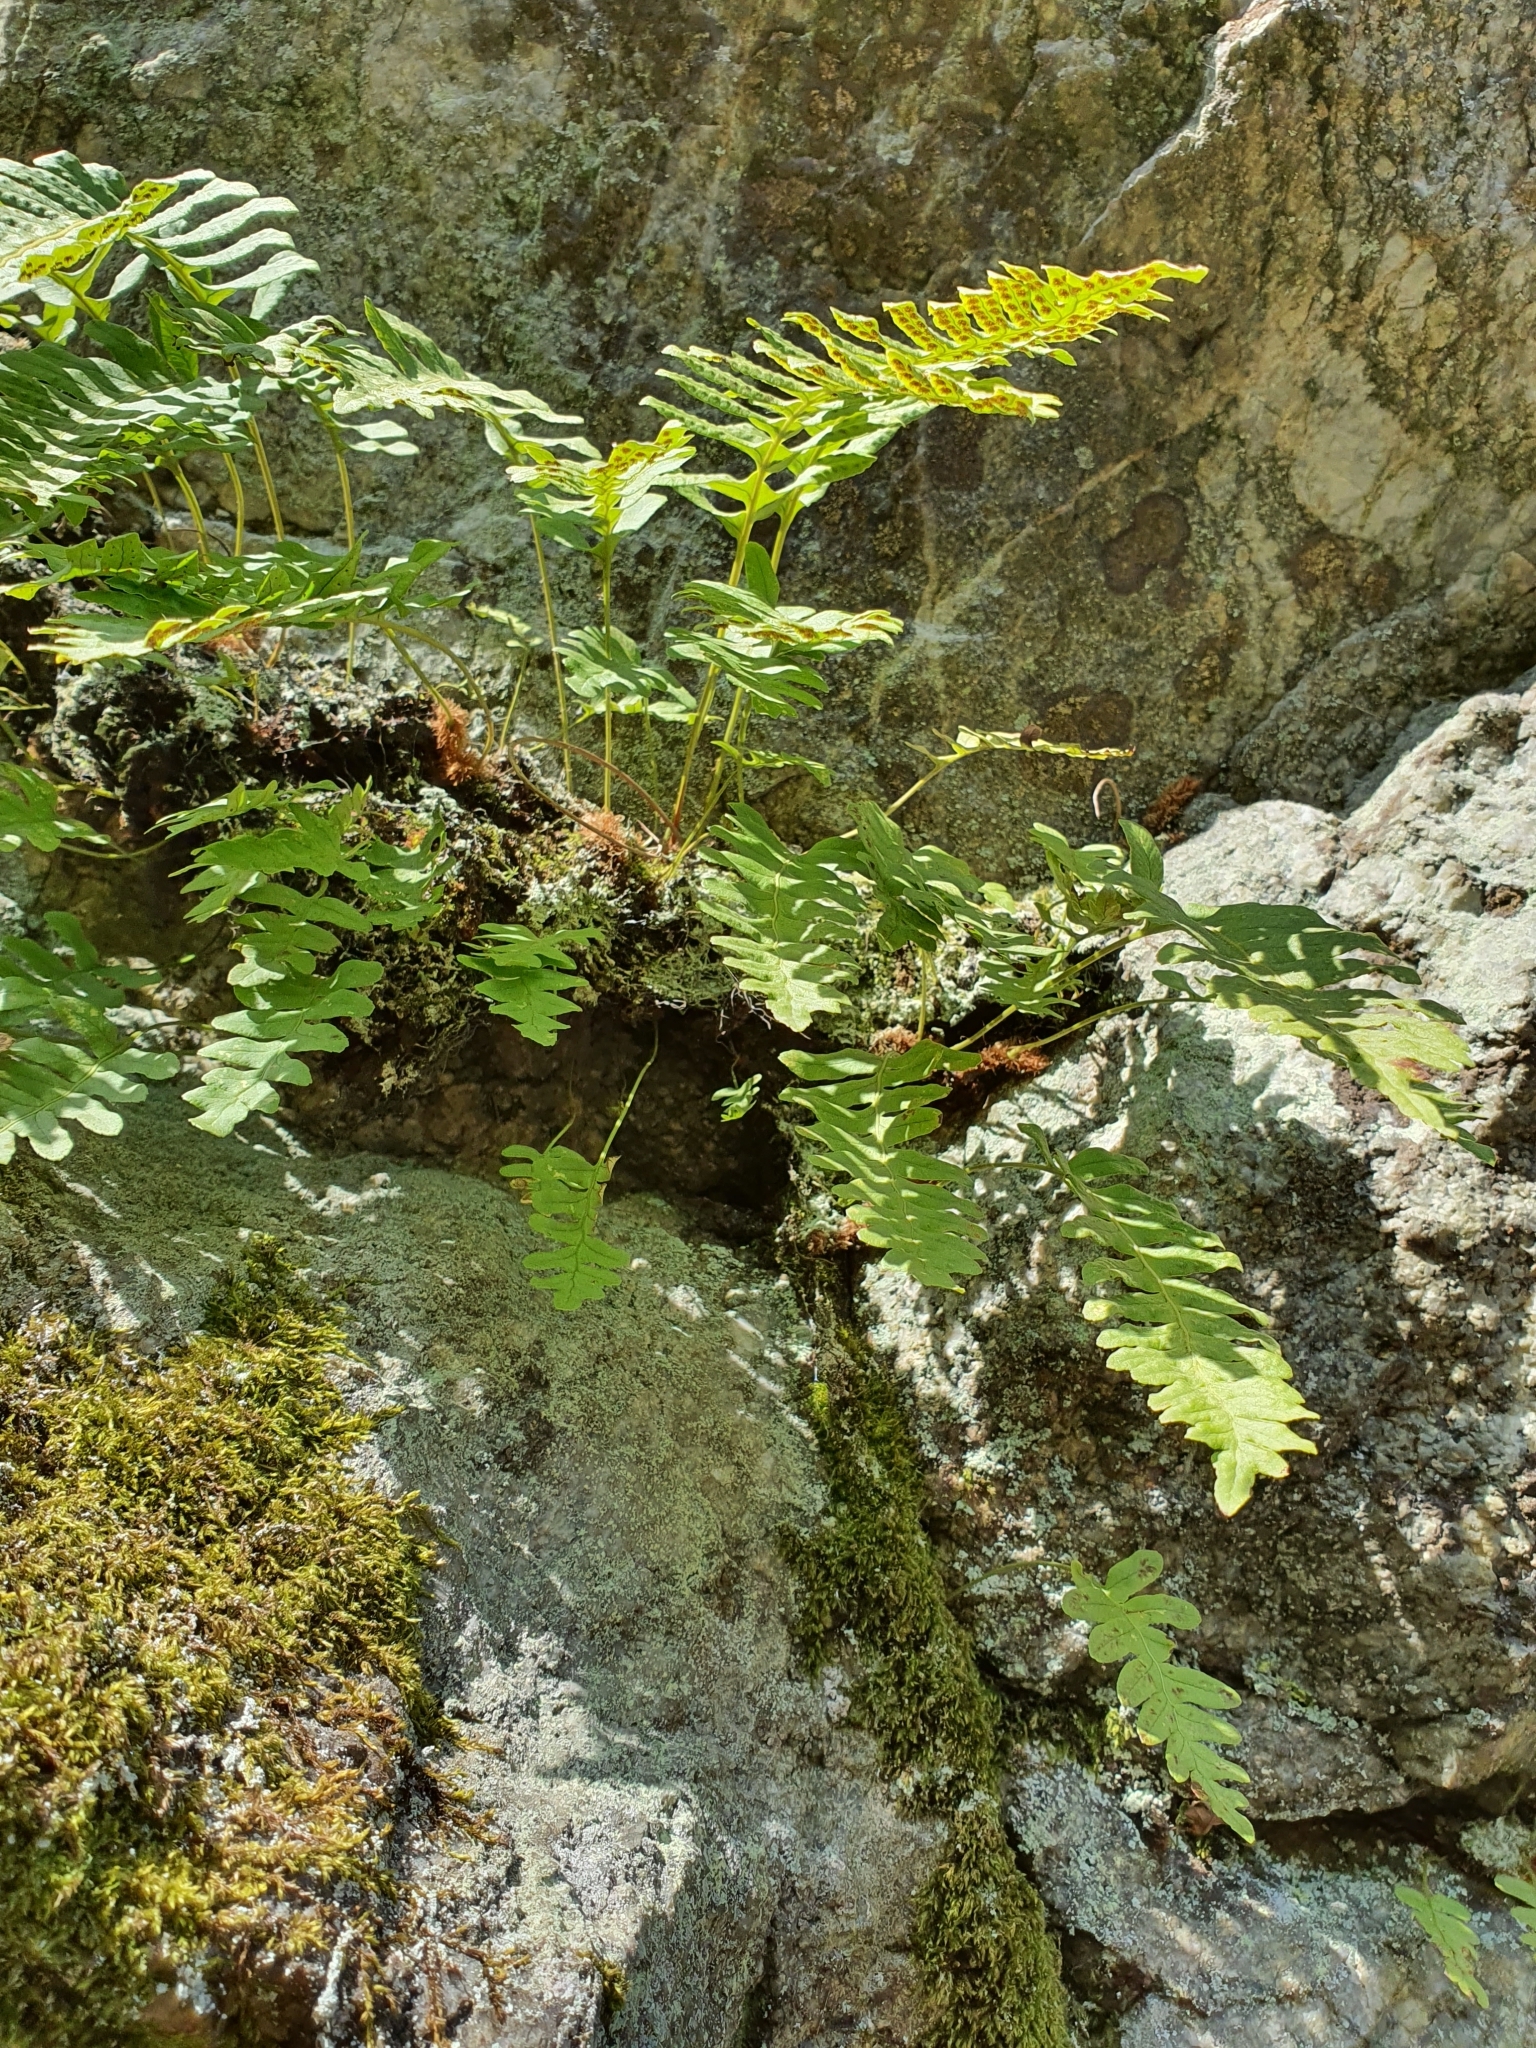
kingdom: Plantae
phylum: Tracheophyta
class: Polypodiopsida
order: Polypodiales
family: Polypodiaceae
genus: Polypodium
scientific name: Polypodium vulgare
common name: Common polypody
